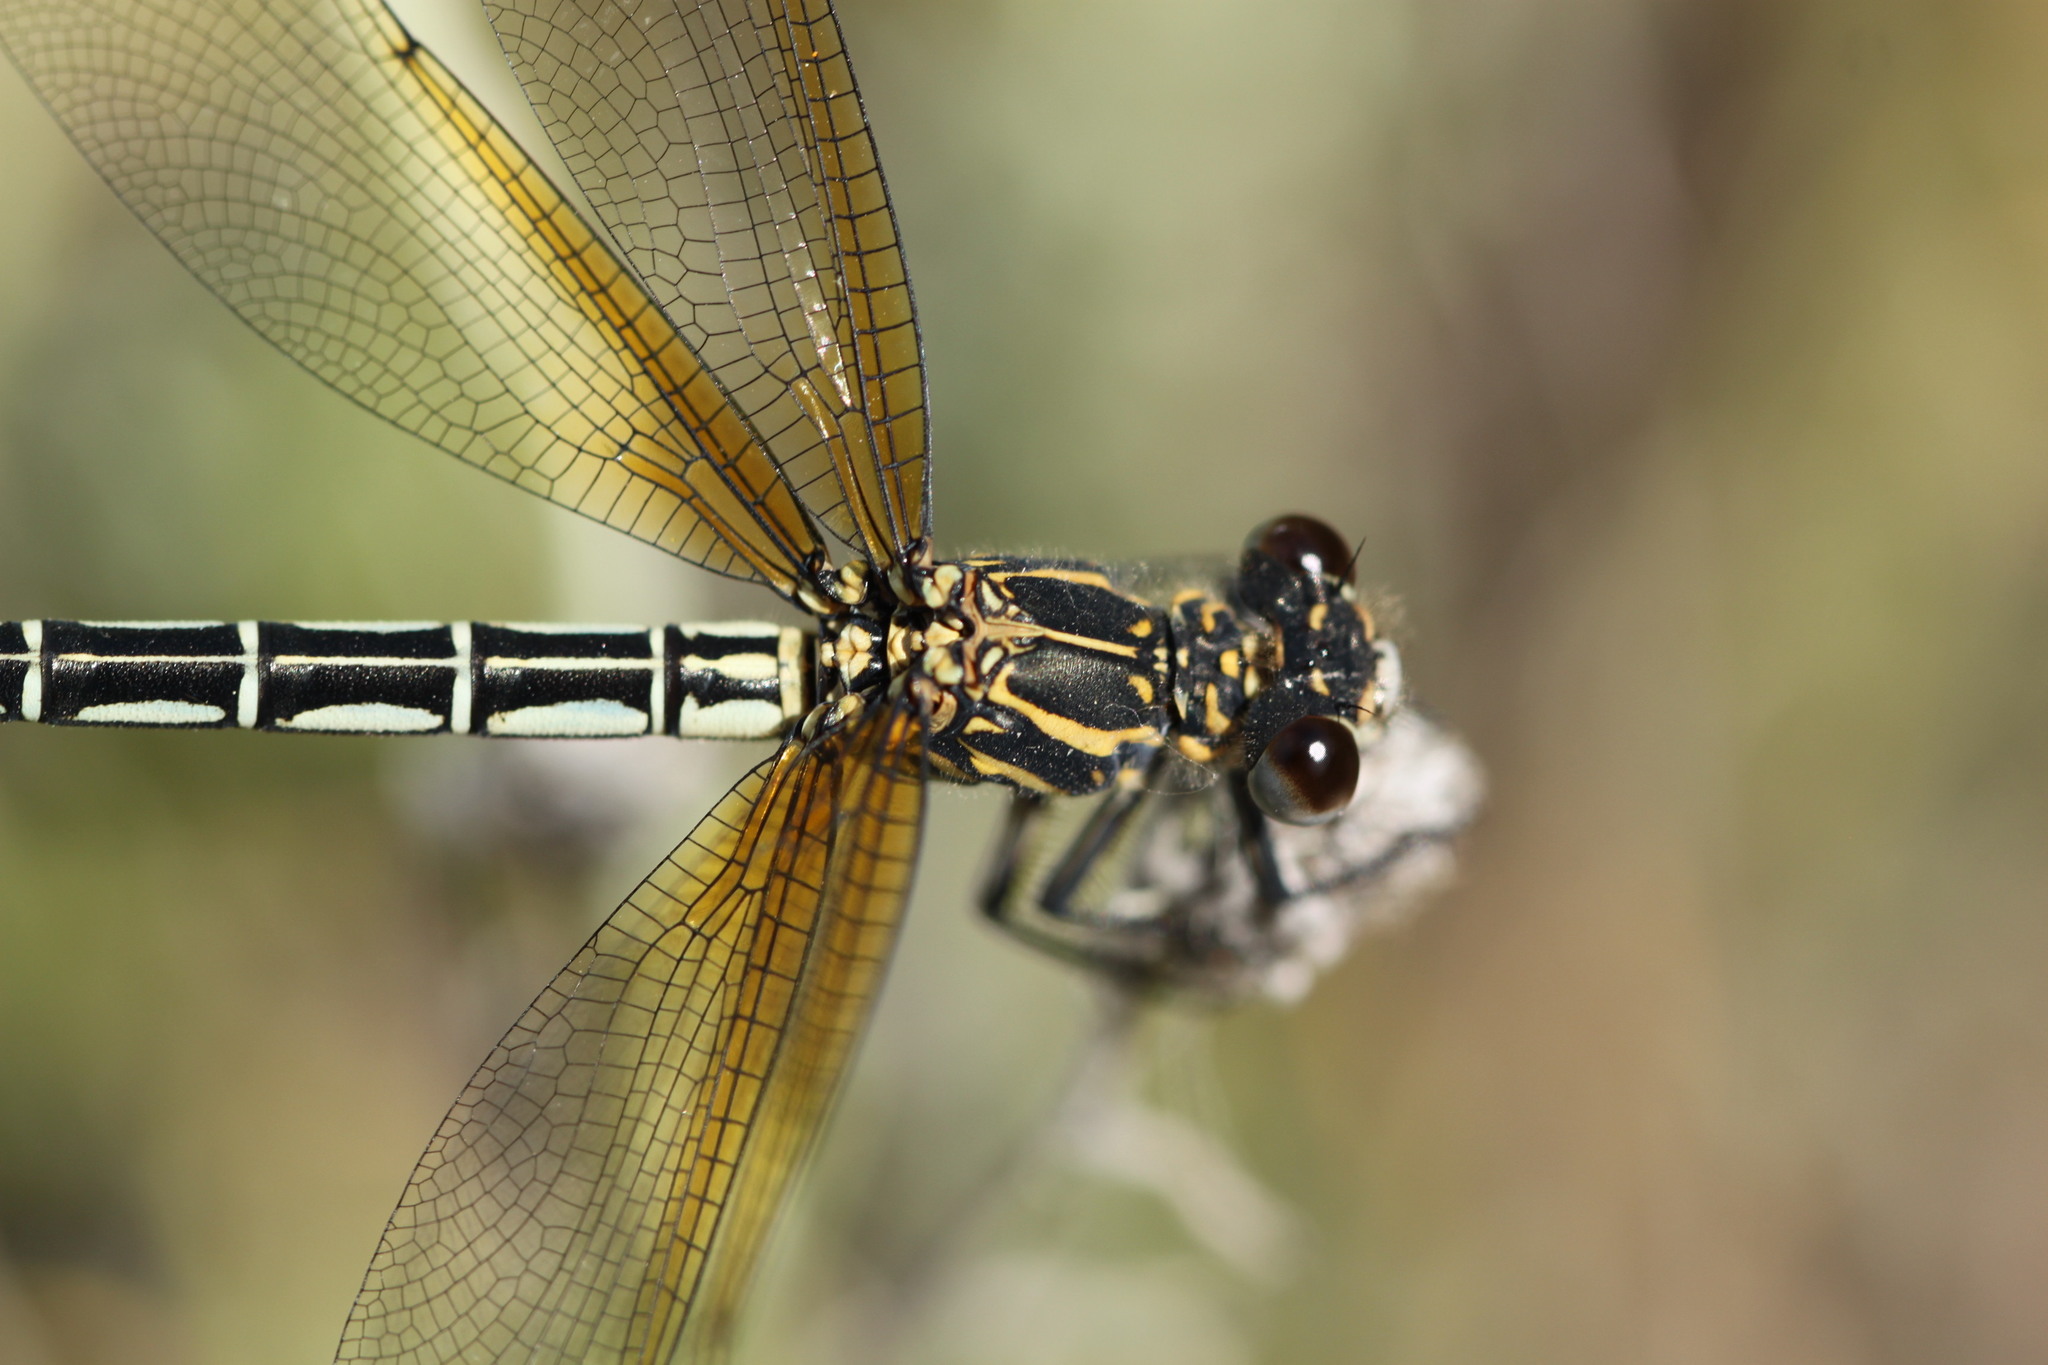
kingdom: Animalia
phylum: Arthropoda
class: Insecta
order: Odonata
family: Euphaeidae
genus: Epallage
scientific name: Epallage fatime
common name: Odalisque
